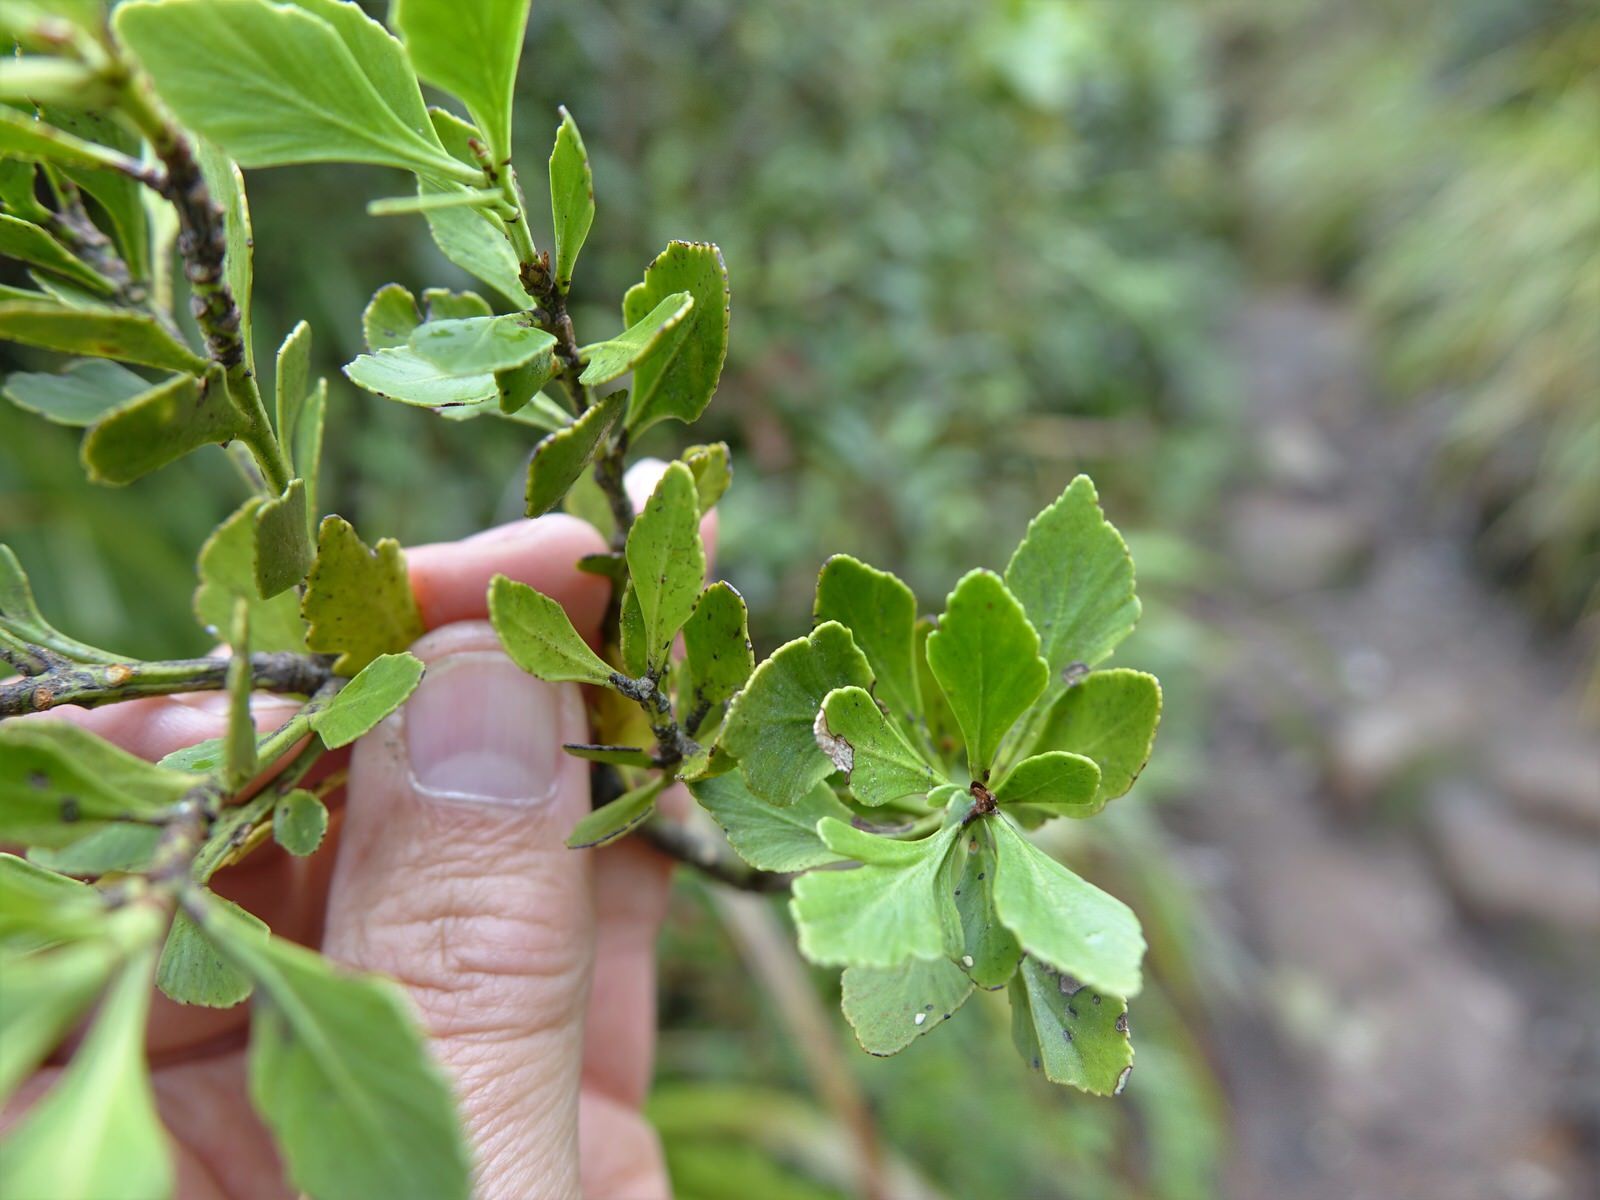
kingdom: Plantae
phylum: Tracheophyta
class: Pinopsida
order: Pinales
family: Phyllocladaceae
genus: Phyllocladus
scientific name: Phyllocladus trichomanoides
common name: Celery pine
